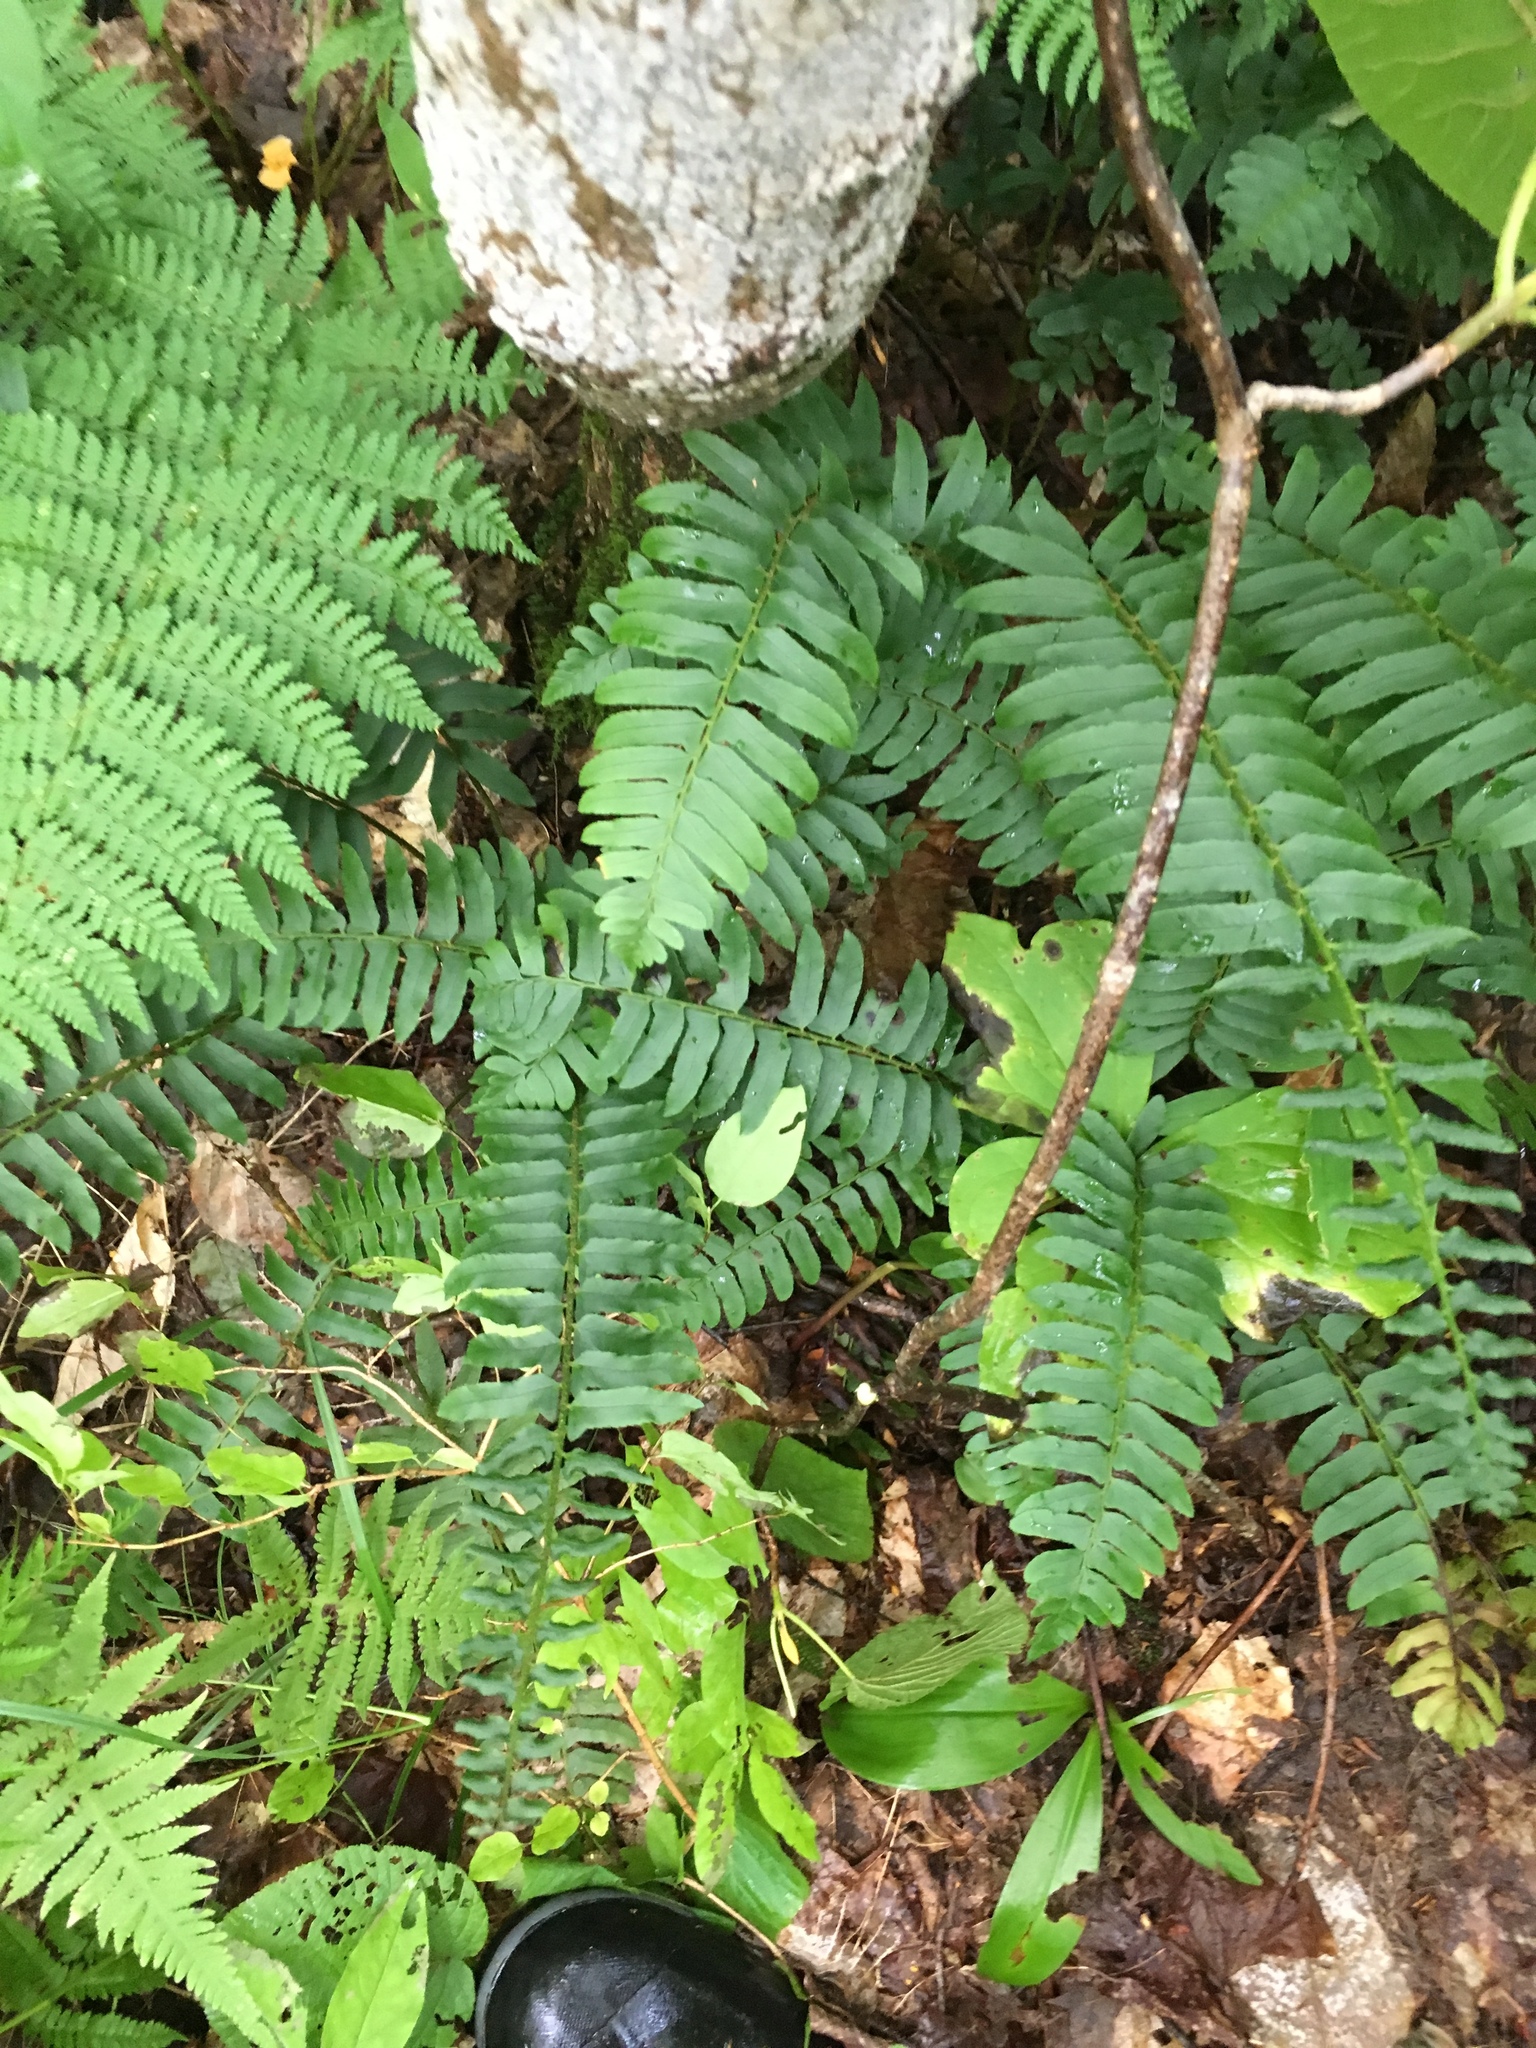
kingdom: Plantae
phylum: Tracheophyta
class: Polypodiopsida
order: Polypodiales
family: Dryopteridaceae
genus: Polystichum
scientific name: Polystichum acrostichoides
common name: Christmas fern
